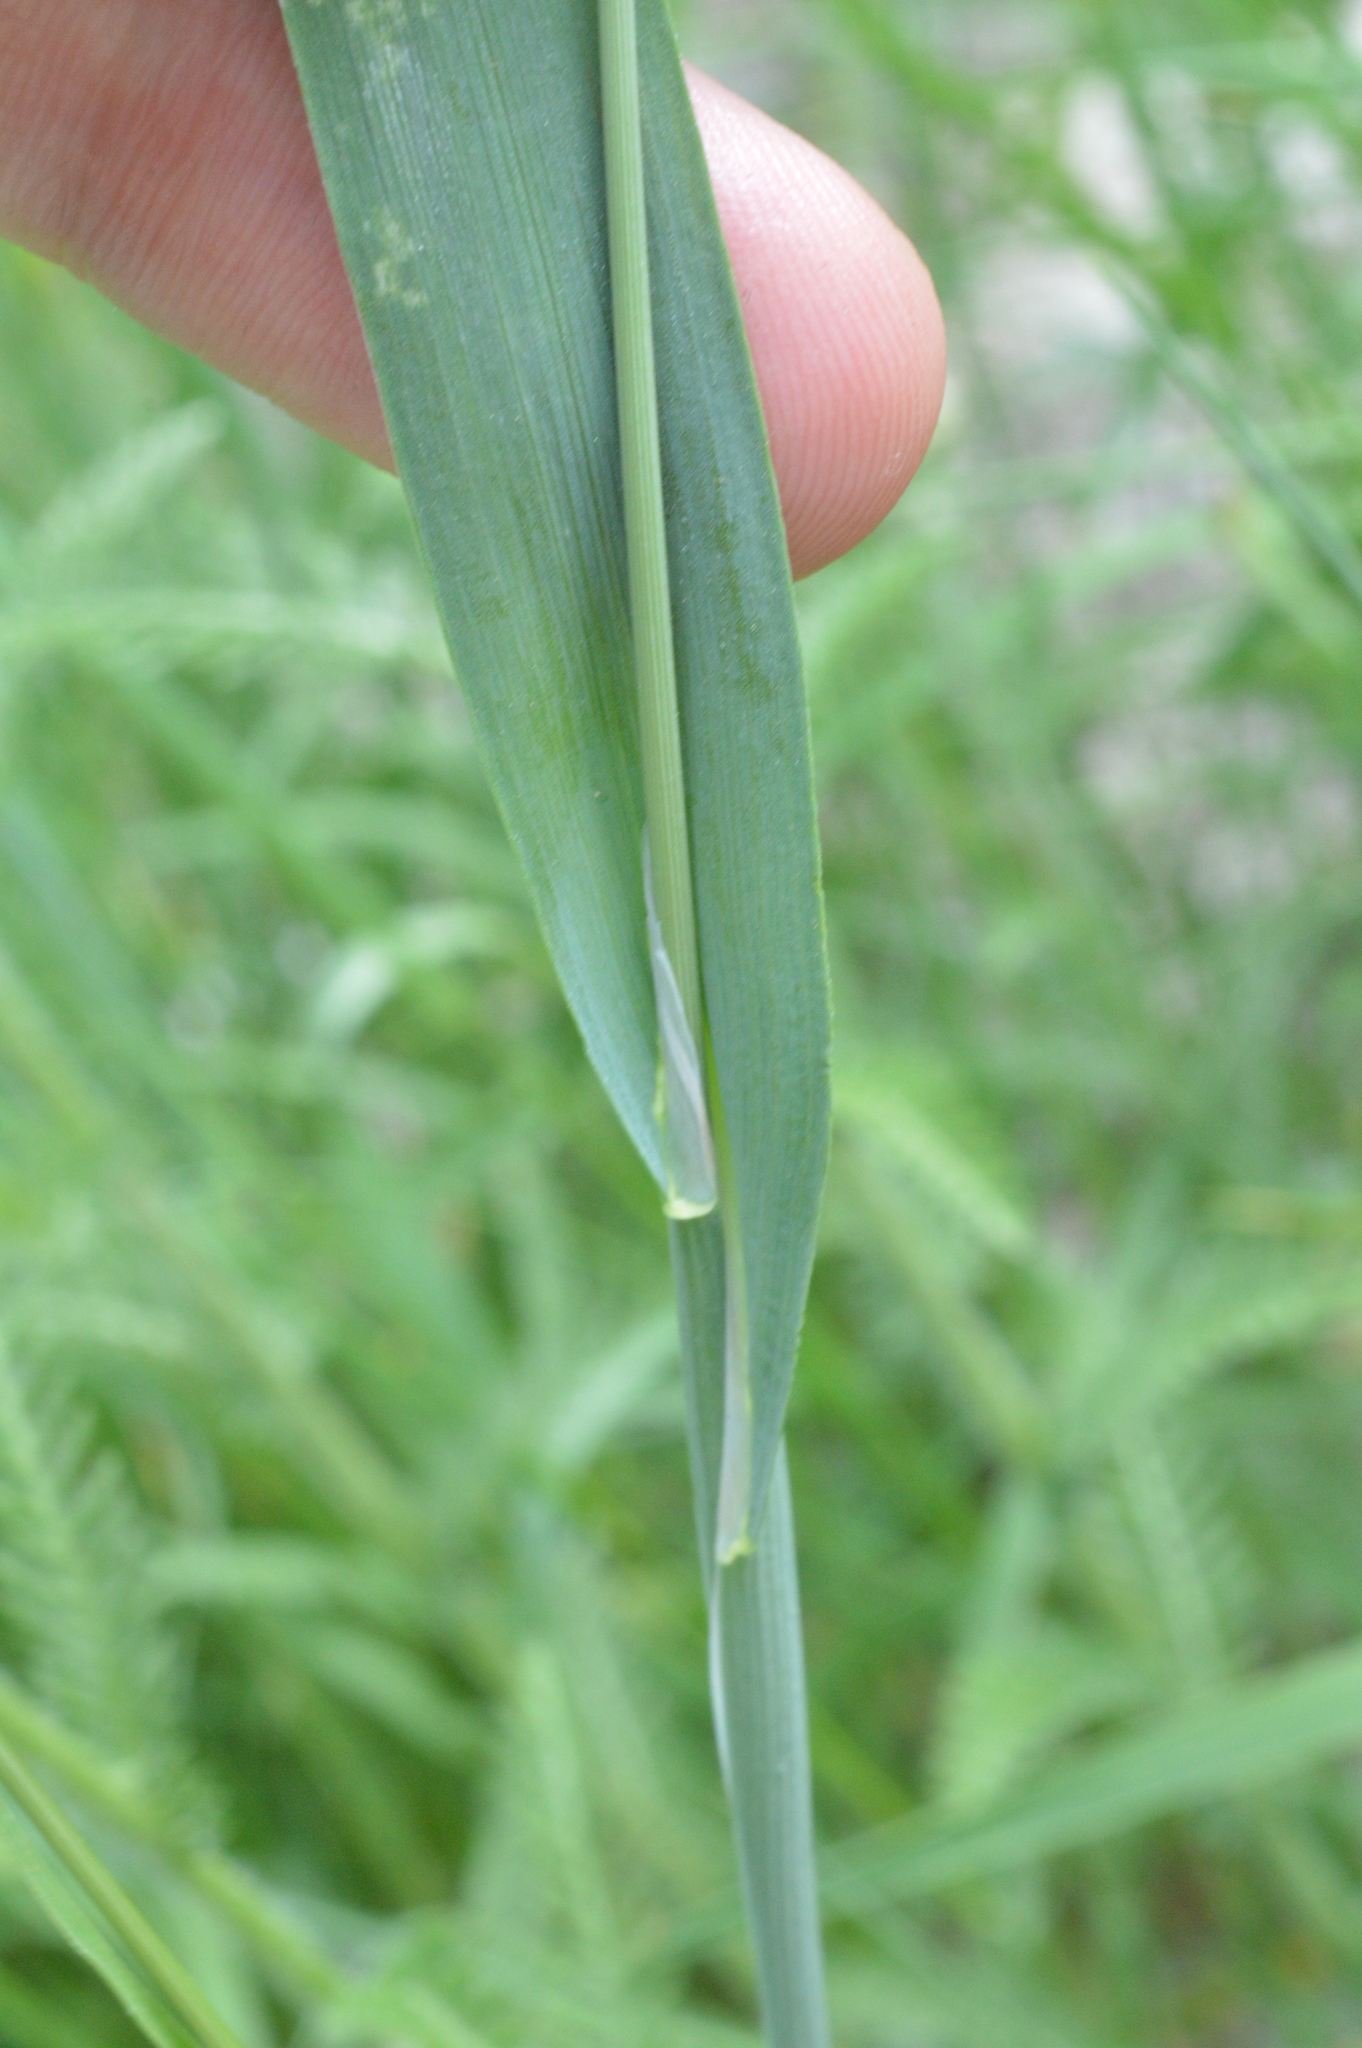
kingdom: Plantae
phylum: Tracheophyta
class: Liliopsida
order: Poales
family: Poaceae
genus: Cynosurus
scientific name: Cynosurus echinatus
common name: Rough dog's-tail
